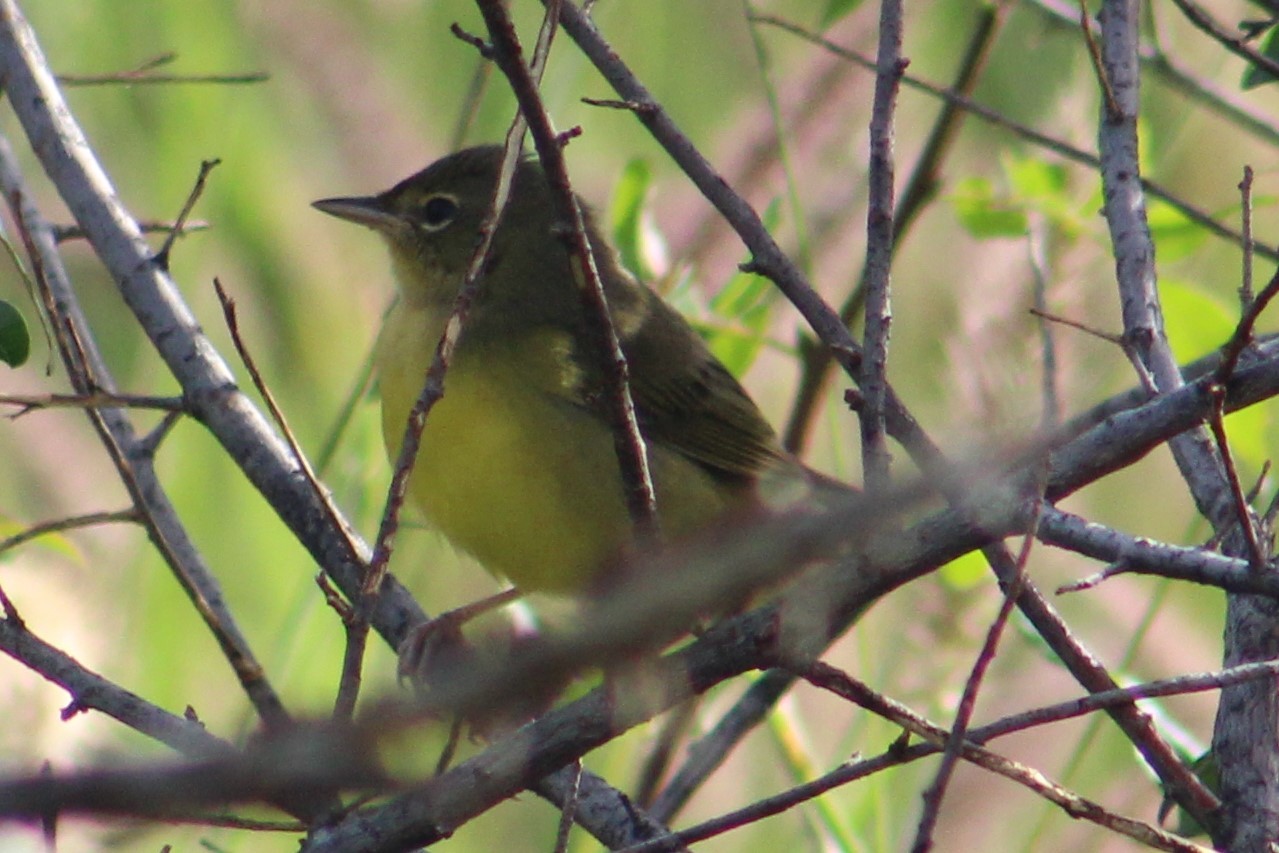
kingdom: Animalia
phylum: Chordata
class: Aves
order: Passeriformes
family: Parulidae
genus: Geothlypis
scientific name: Geothlypis philadelphia
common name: Mourning warbler
